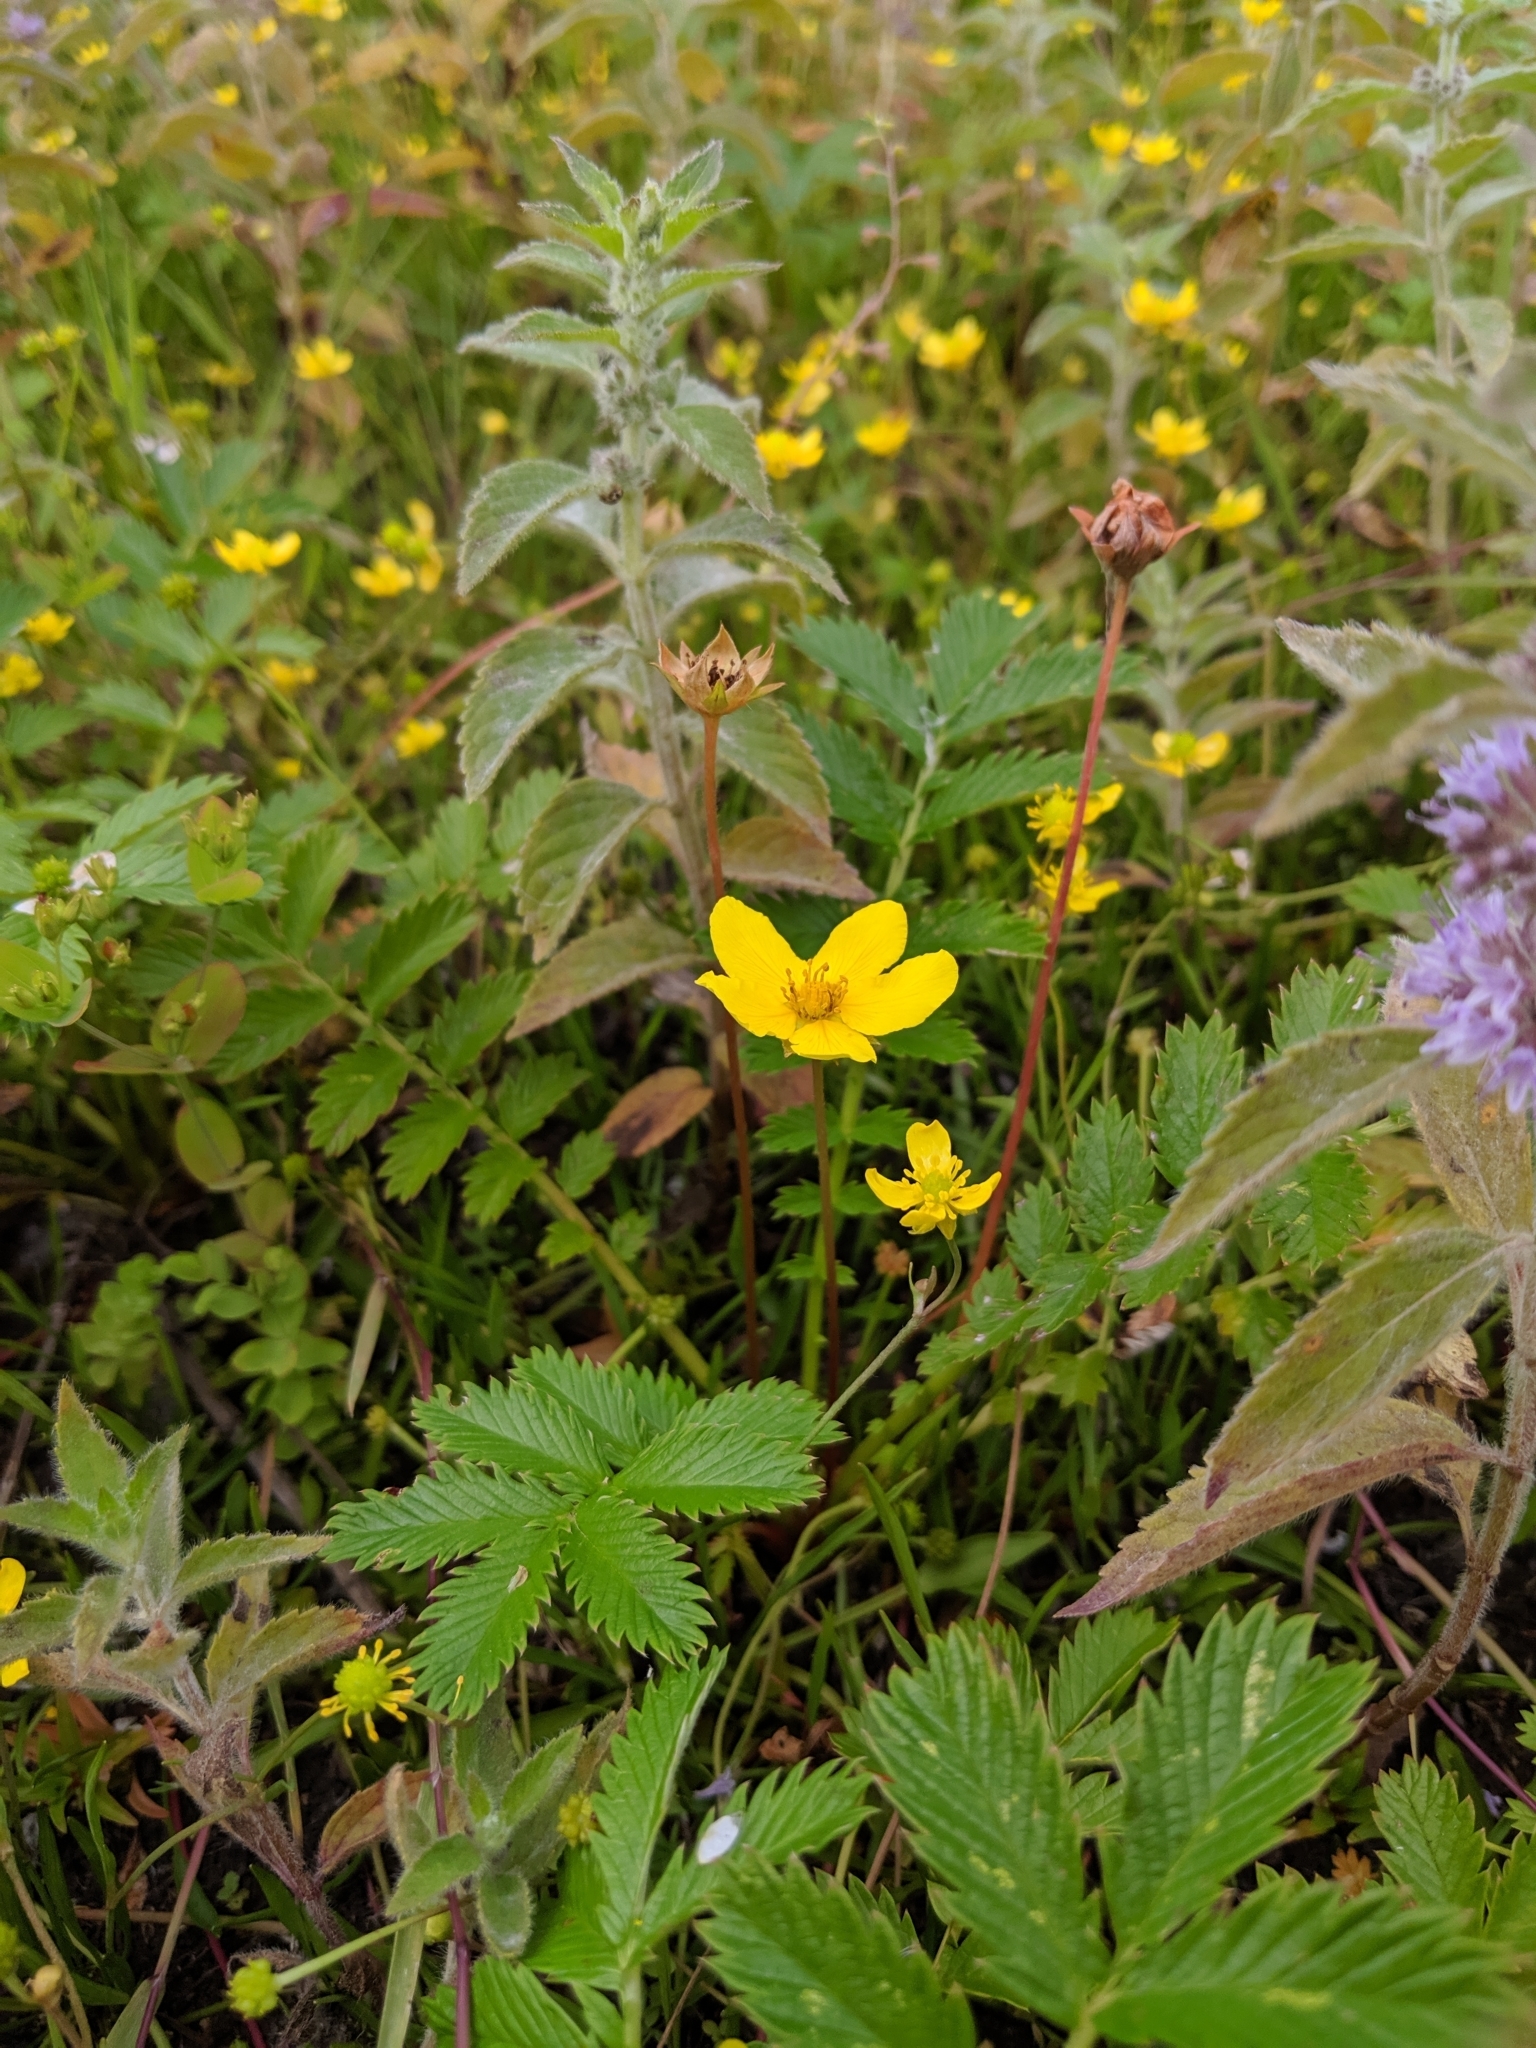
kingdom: Plantae
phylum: Tracheophyta
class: Magnoliopsida
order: Rosales
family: Rosaceae
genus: Argentina
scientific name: Argentina anserina
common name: Common silverweed
